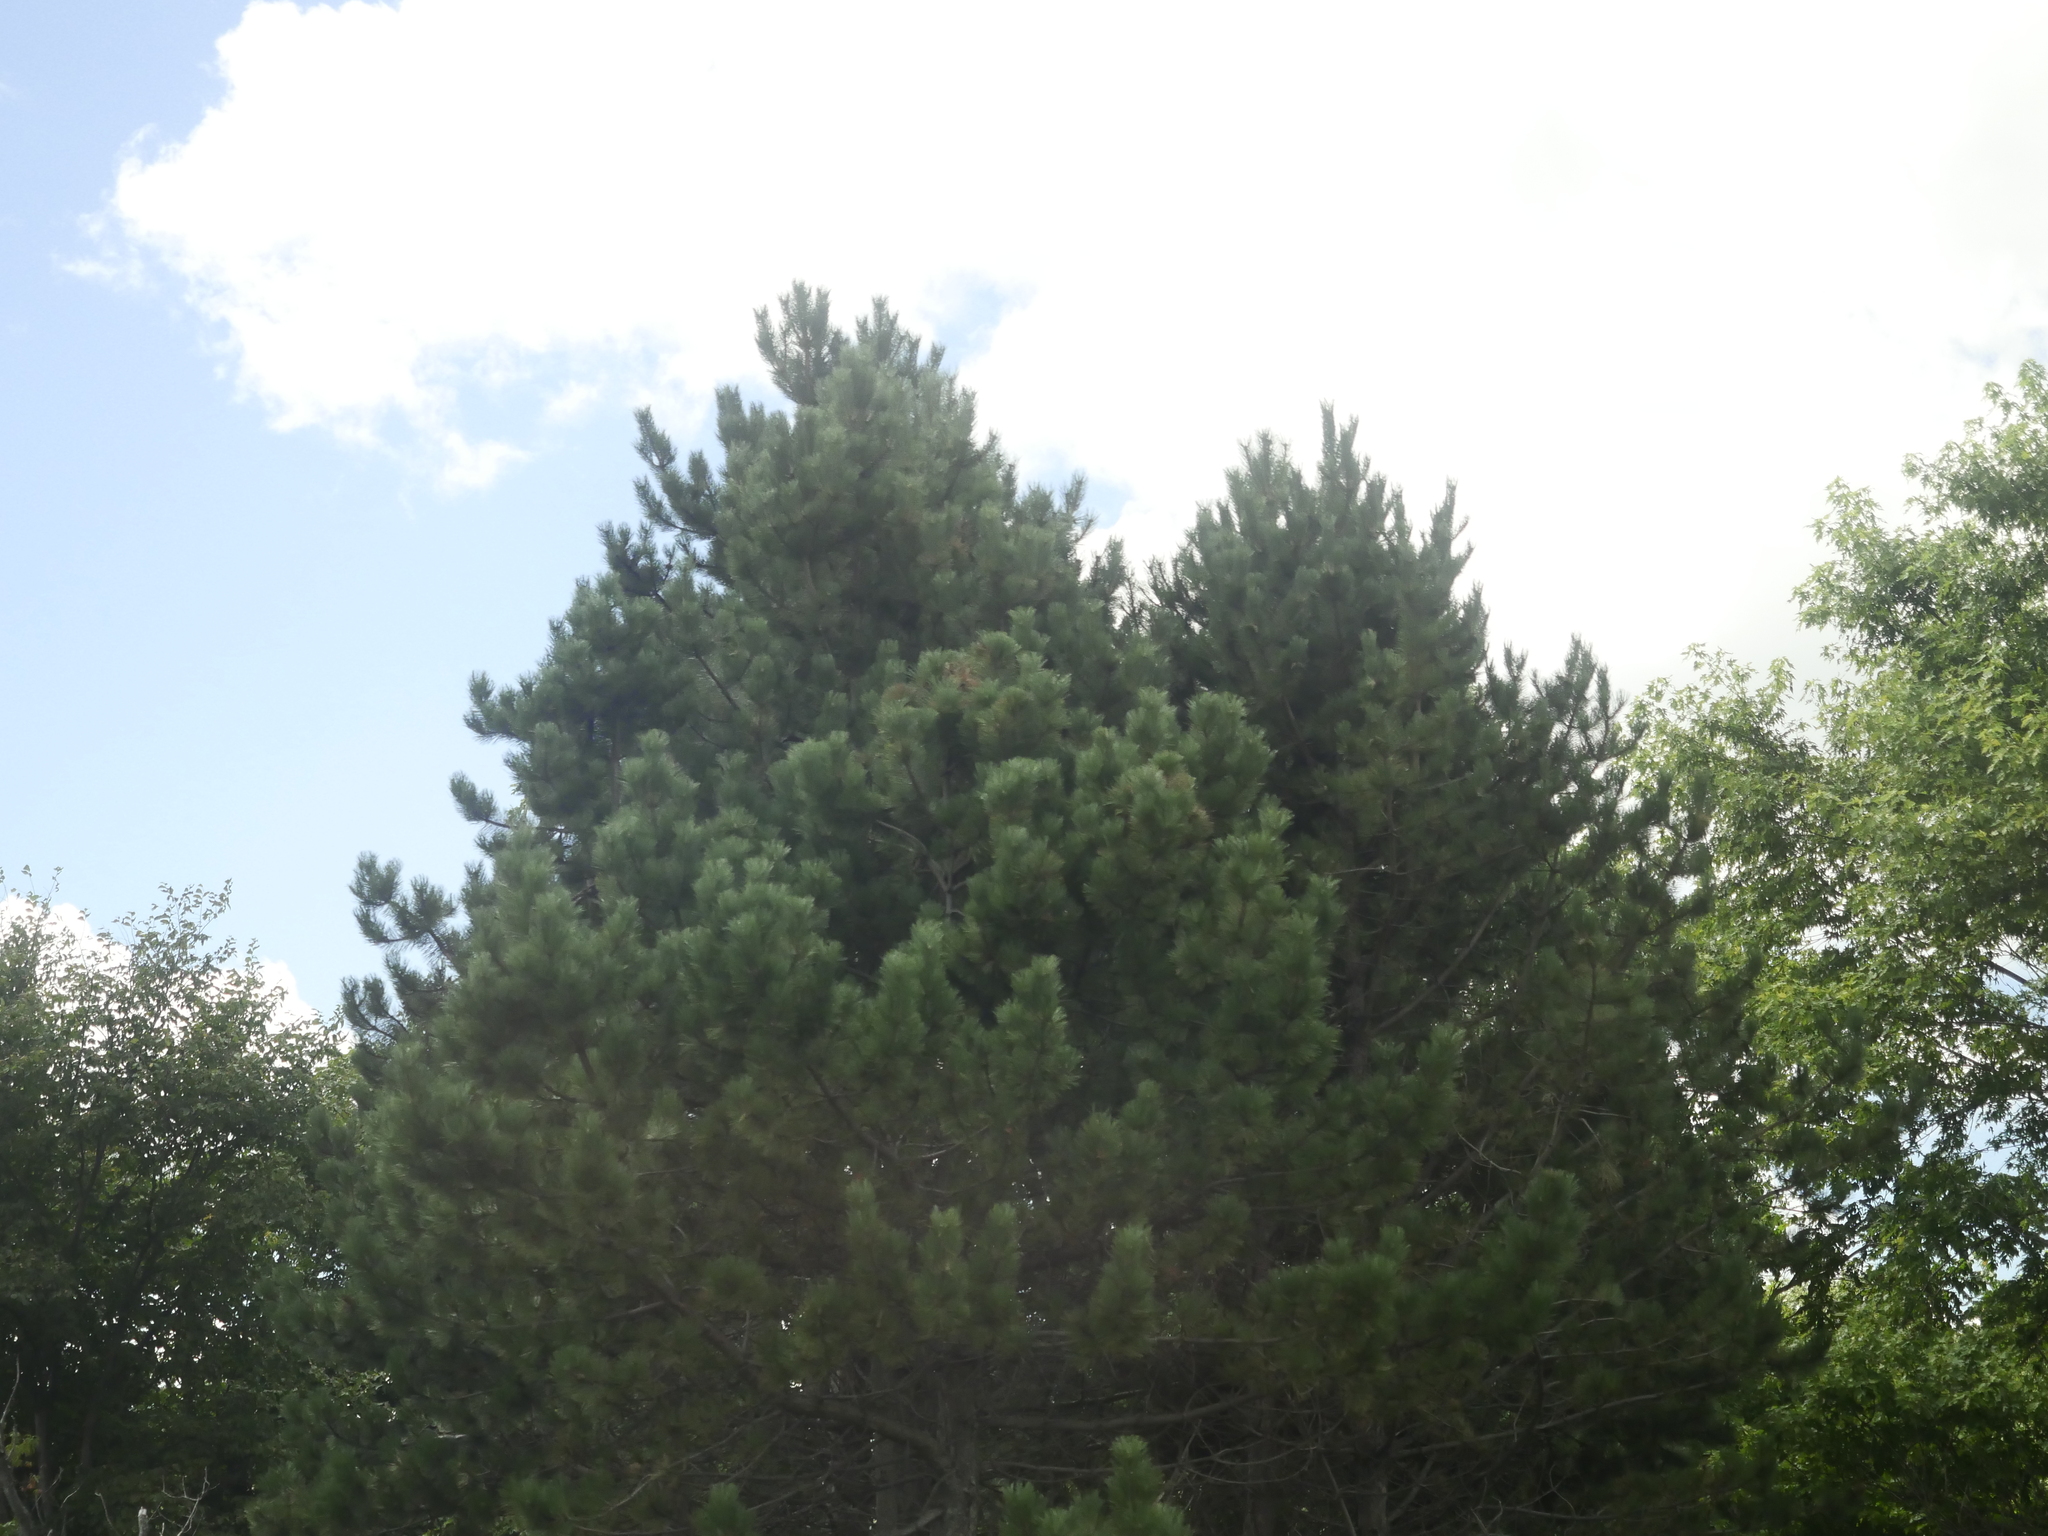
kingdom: Plantae
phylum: Tracheophyta
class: Pinopsida
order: Pinales
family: Pinaceae
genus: Pinus
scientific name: Pinus strobus
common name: Weymouth pine
